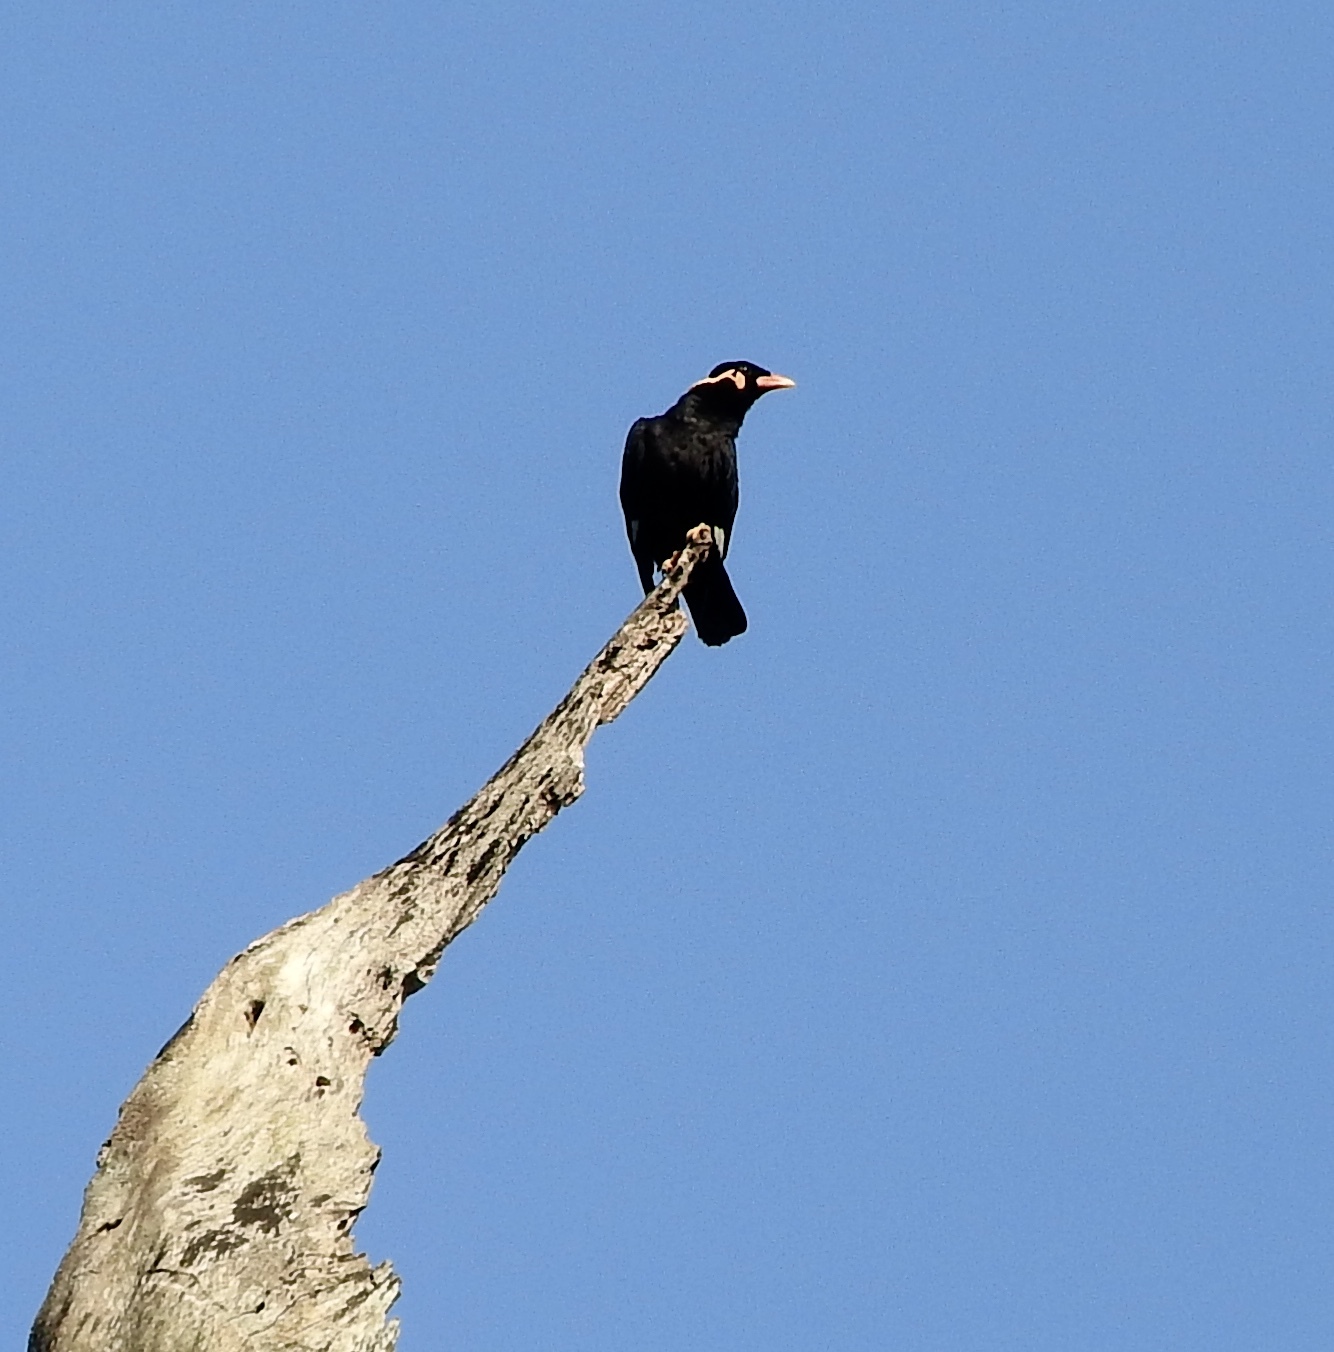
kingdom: Animalia
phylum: Chordata
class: Aves
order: Passeriformes
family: Sturnidae
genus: Gracula
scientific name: Gracula religiosa
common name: Common hill myna
